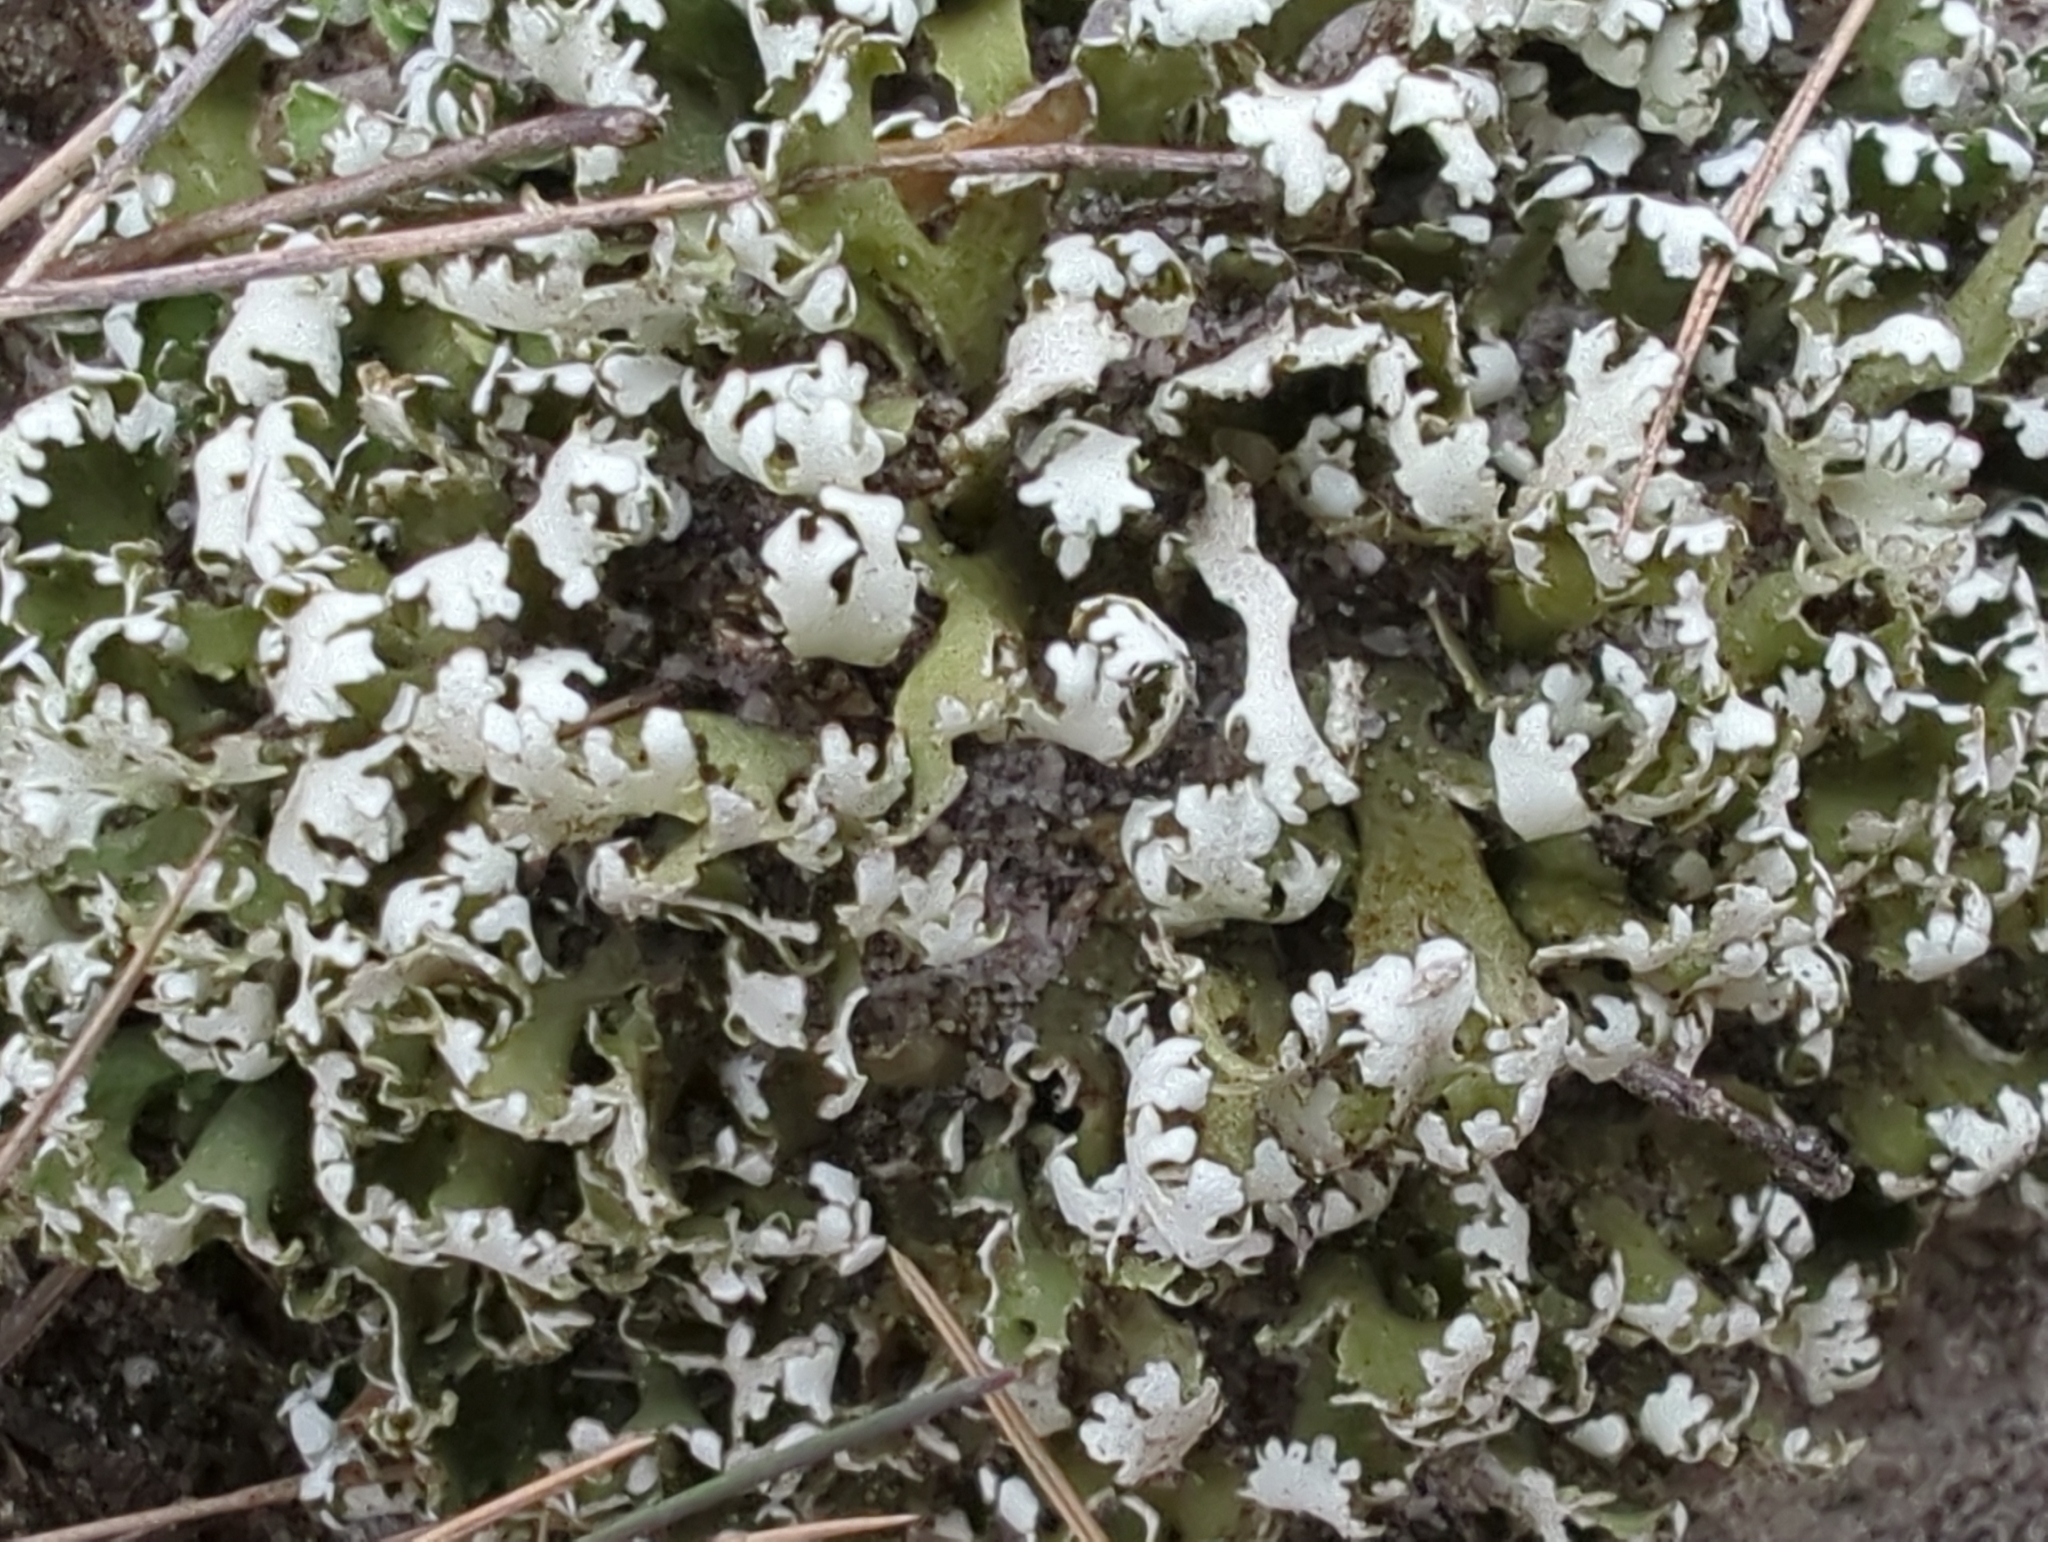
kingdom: Fungi
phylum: Ascomycota
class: Lecanoromycetes
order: Lecanorales
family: Cladoniaceae
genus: Cladonia
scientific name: Cladonia foliacea
